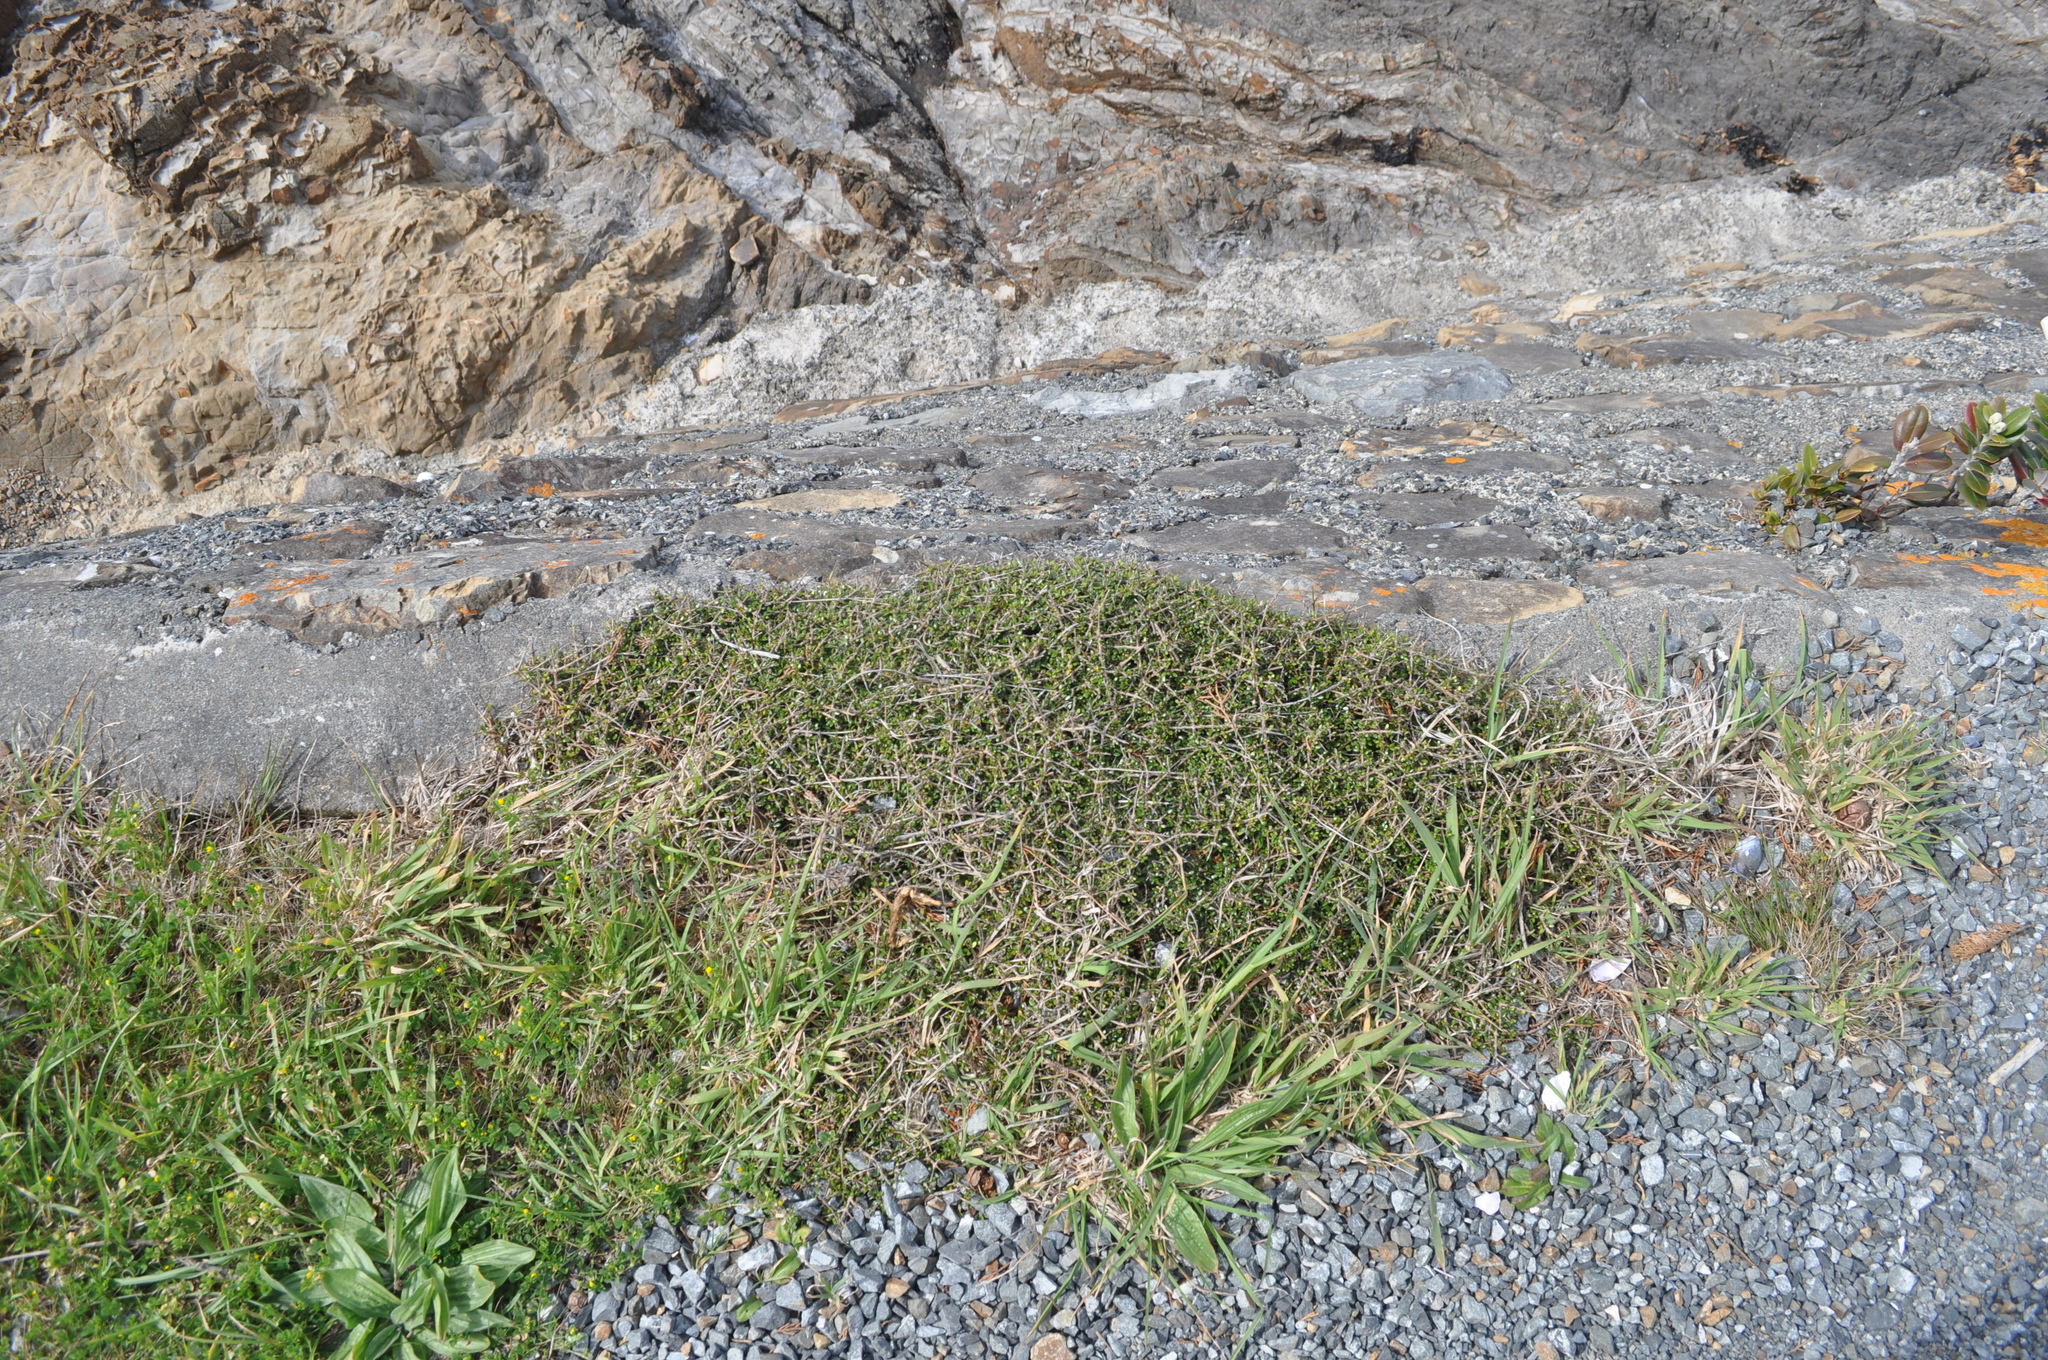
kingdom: Plantae
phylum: Tracheophyta
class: Magnoliopsida
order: Gentianales
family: Rubiaceae
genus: Coprosma
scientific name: Coprosma propinqua
